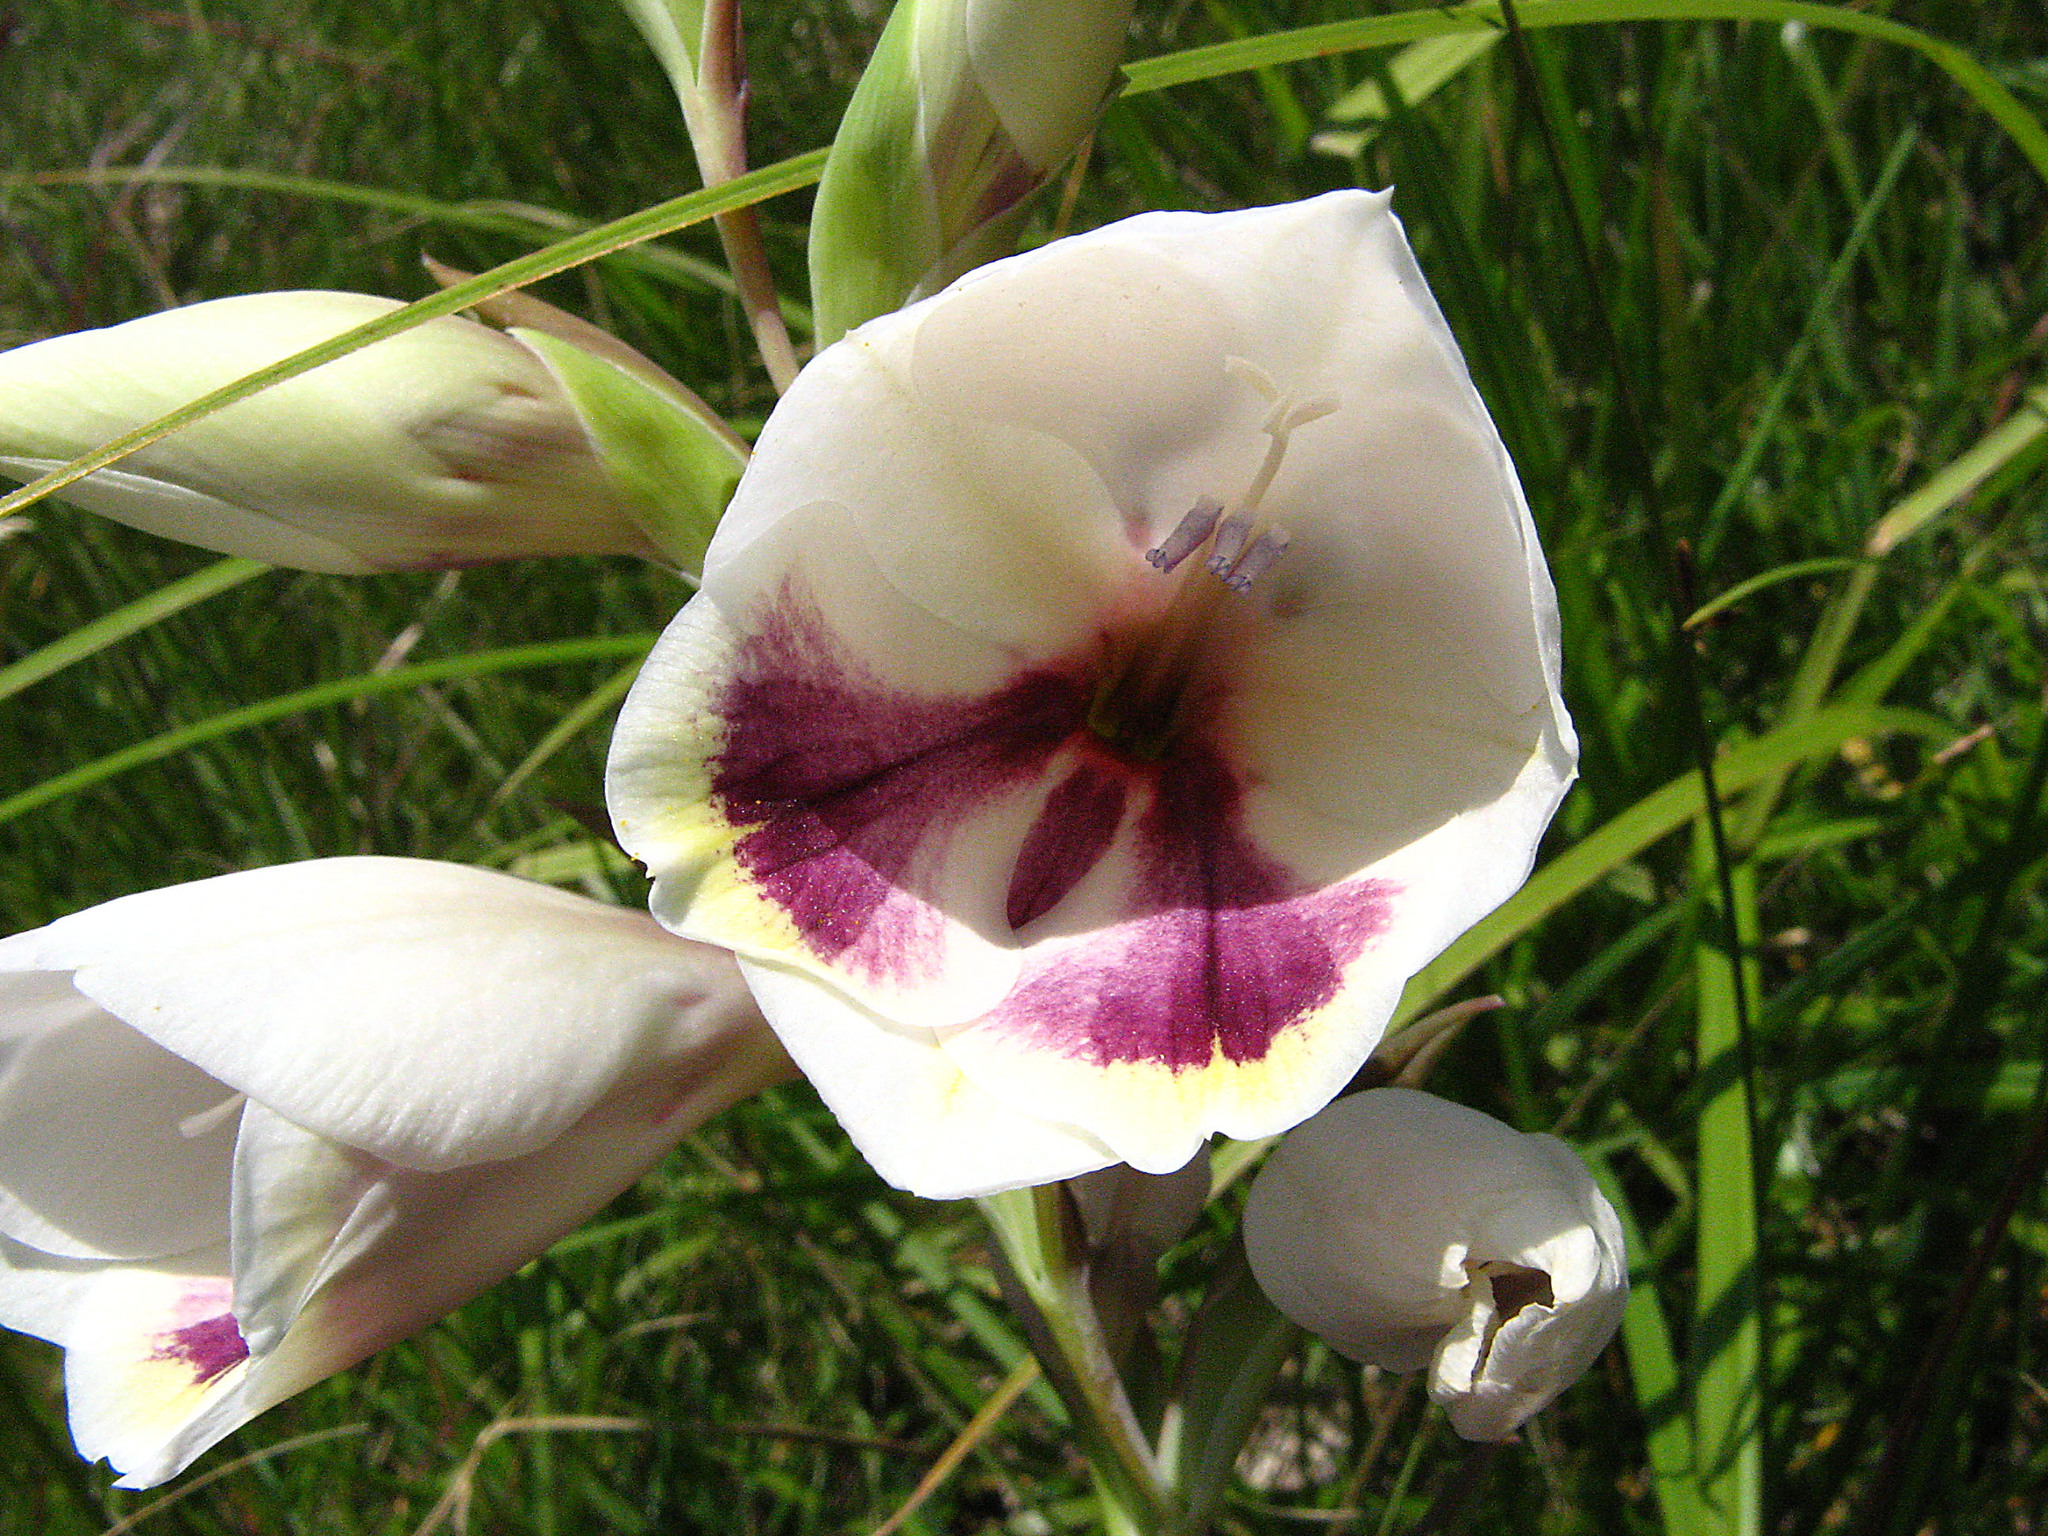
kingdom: Plantae
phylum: Tracheophyta
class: Liliopsida
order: Asparagales
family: Iridaceae
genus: Gladiolus
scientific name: Gladiolus papilio
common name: Goldblotch gladiolus
